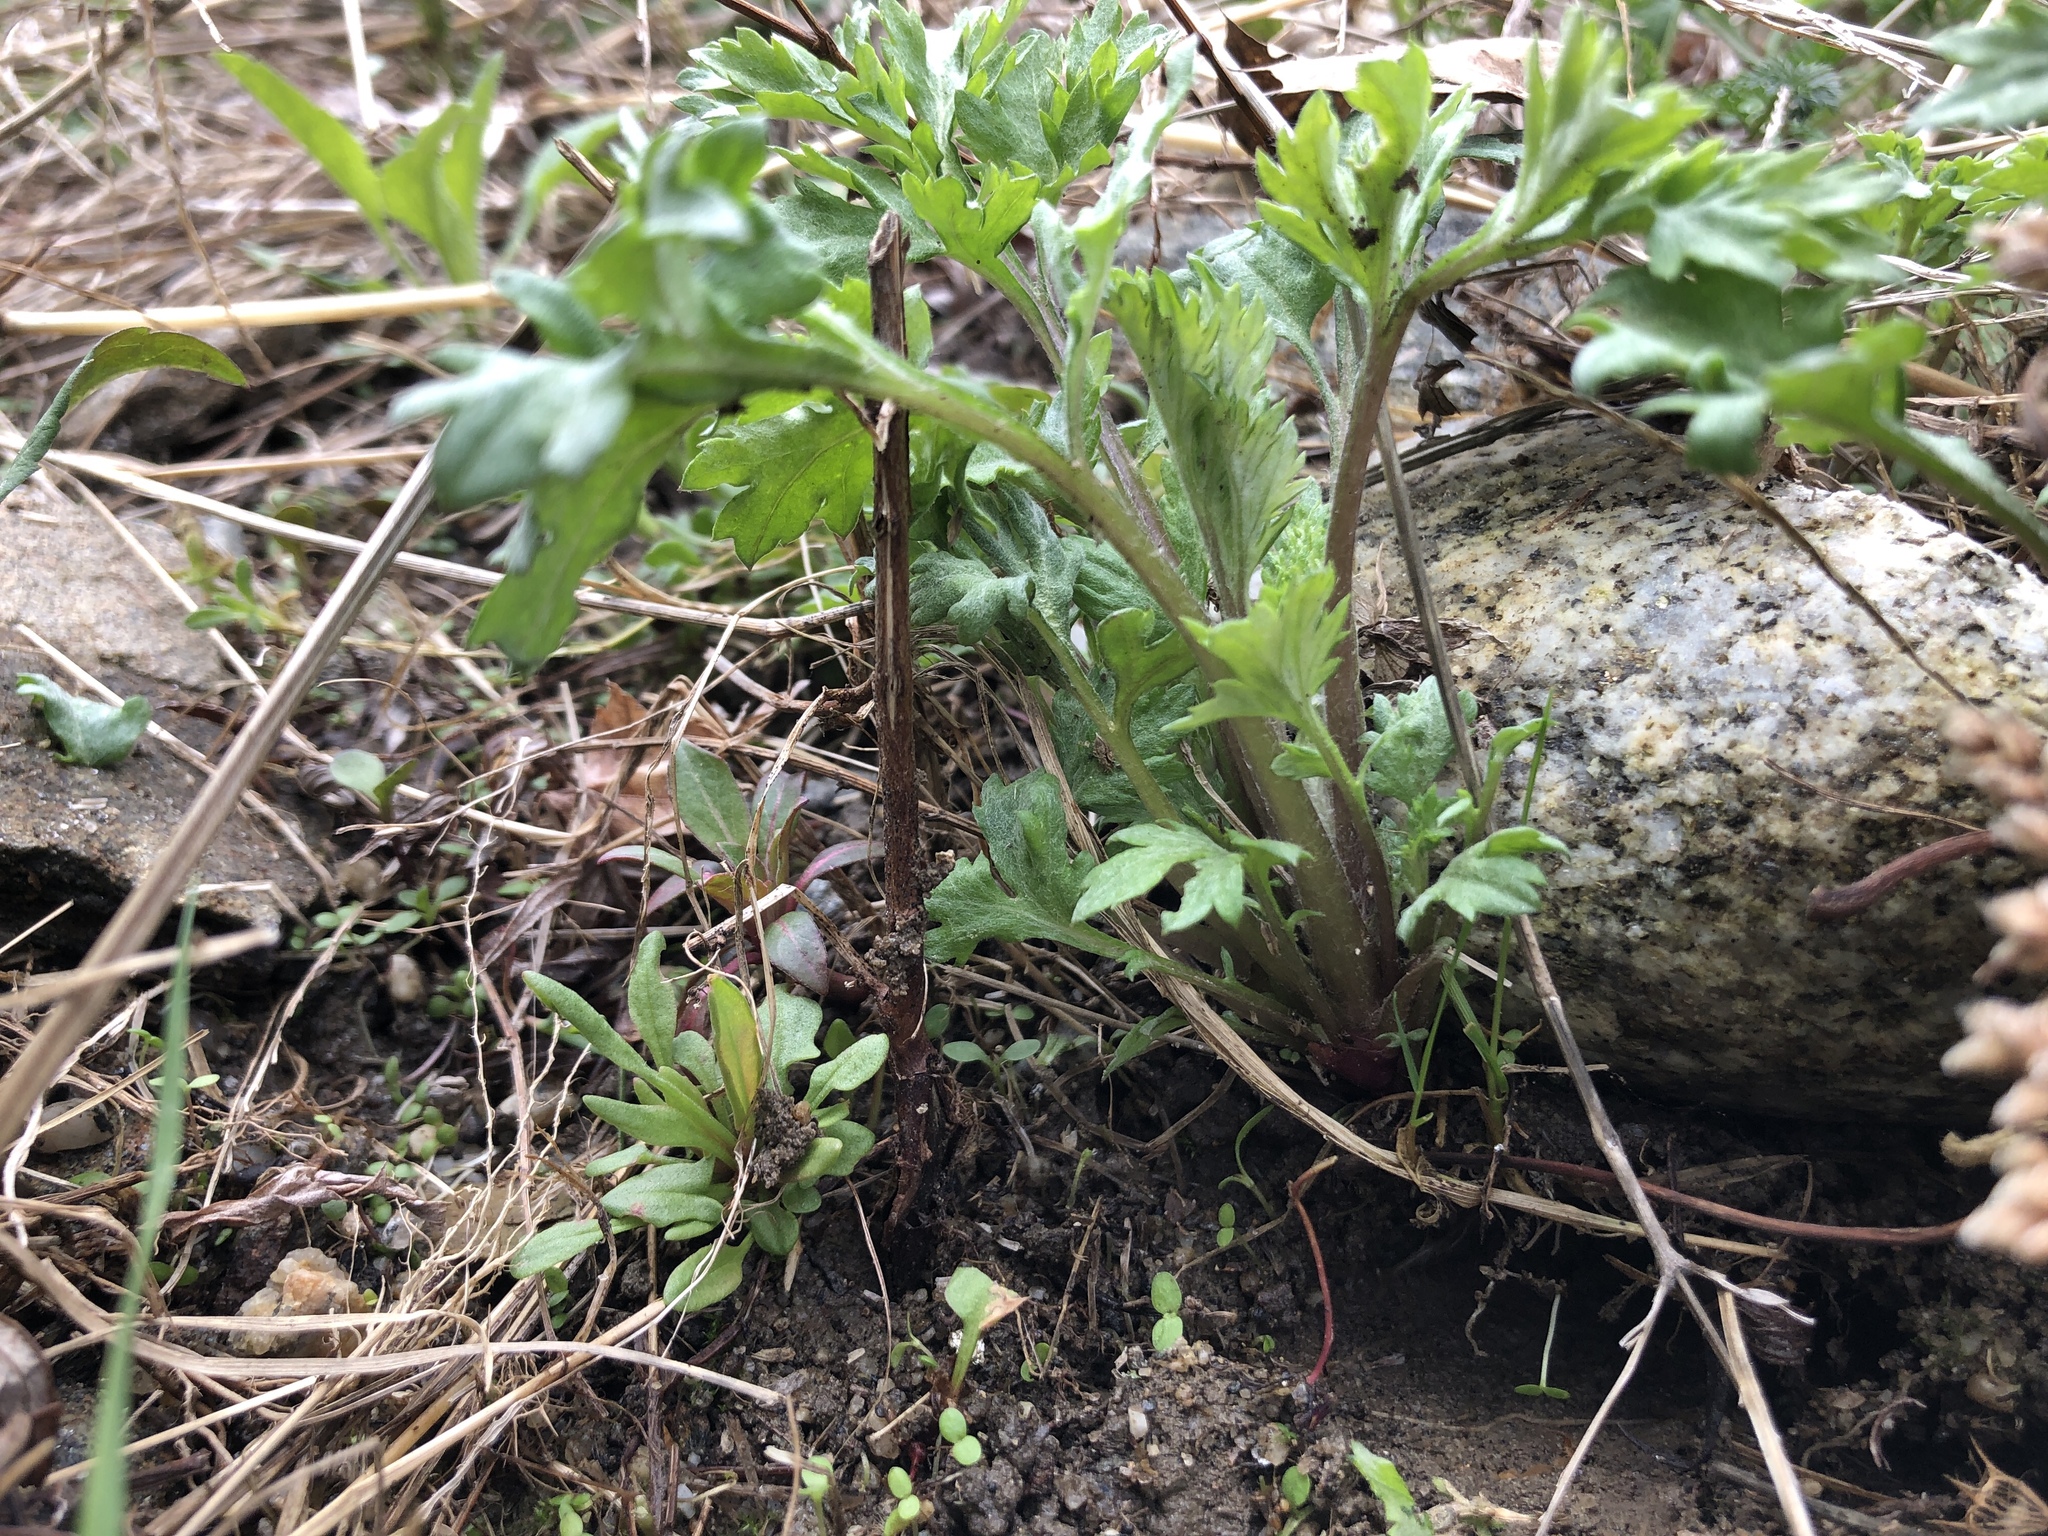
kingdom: Plantae
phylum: Tracheophyta
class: Magnoliopsida
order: Asterales
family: Asteraceae
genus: Artemisia
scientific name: Artemisia vulgaris
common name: Mugwort
